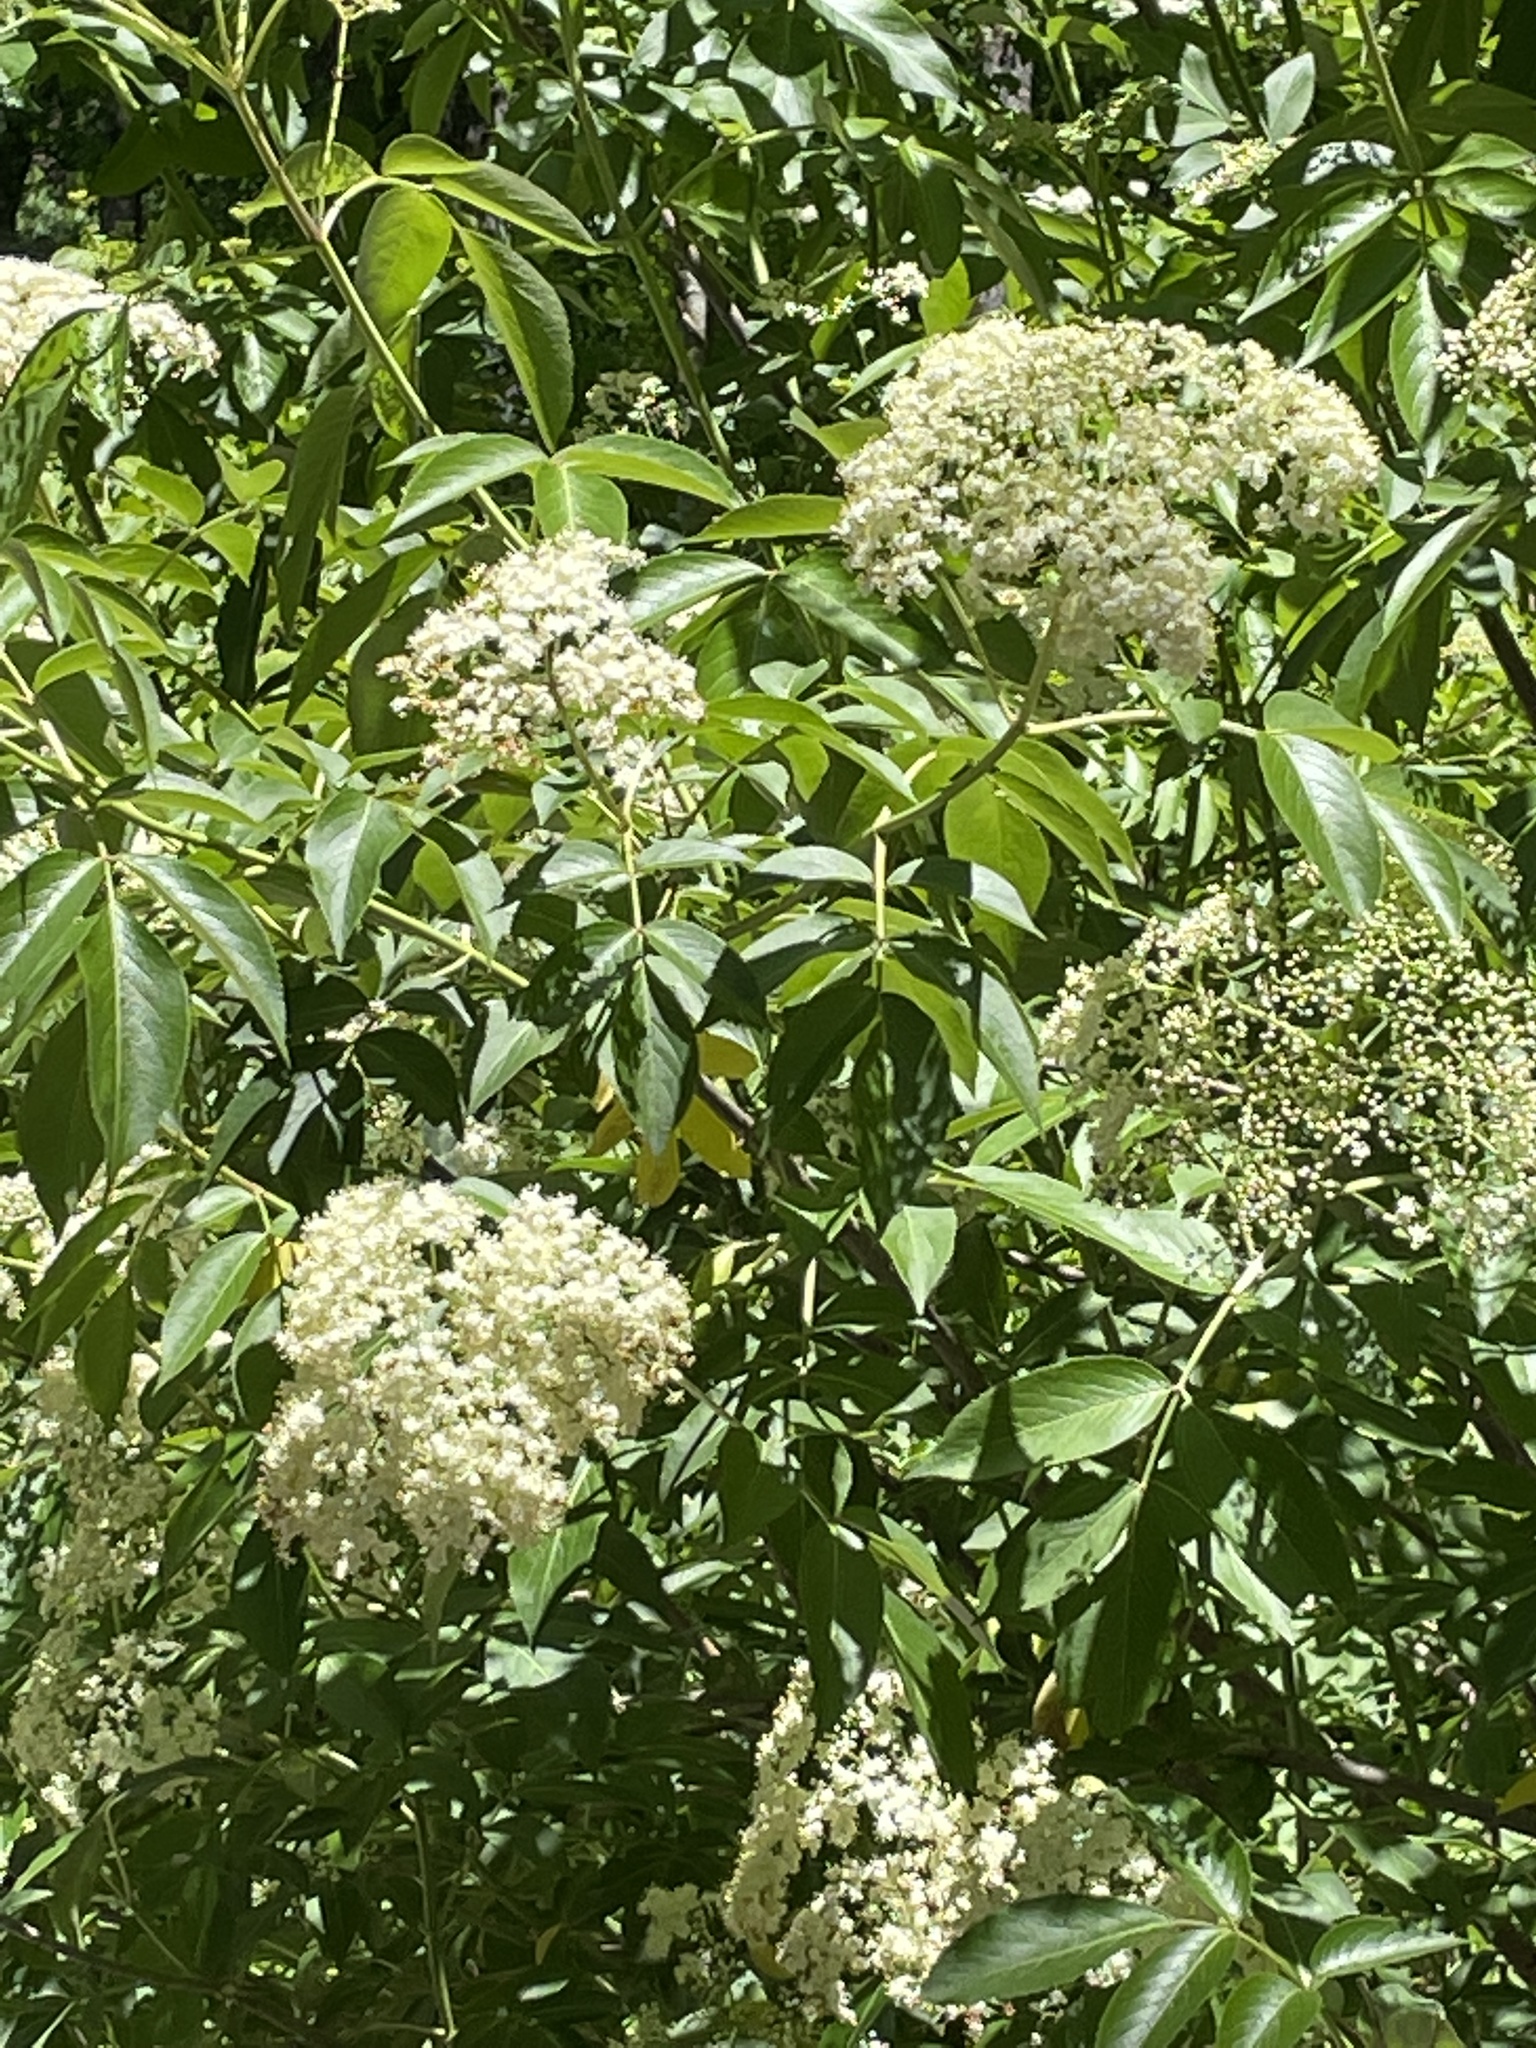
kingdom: Plantae
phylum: Tracheophyta
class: Magnoliopsida
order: Dipsacales
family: Viburnaceae
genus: Sambucus
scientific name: Sambucus canadensis
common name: American elder
